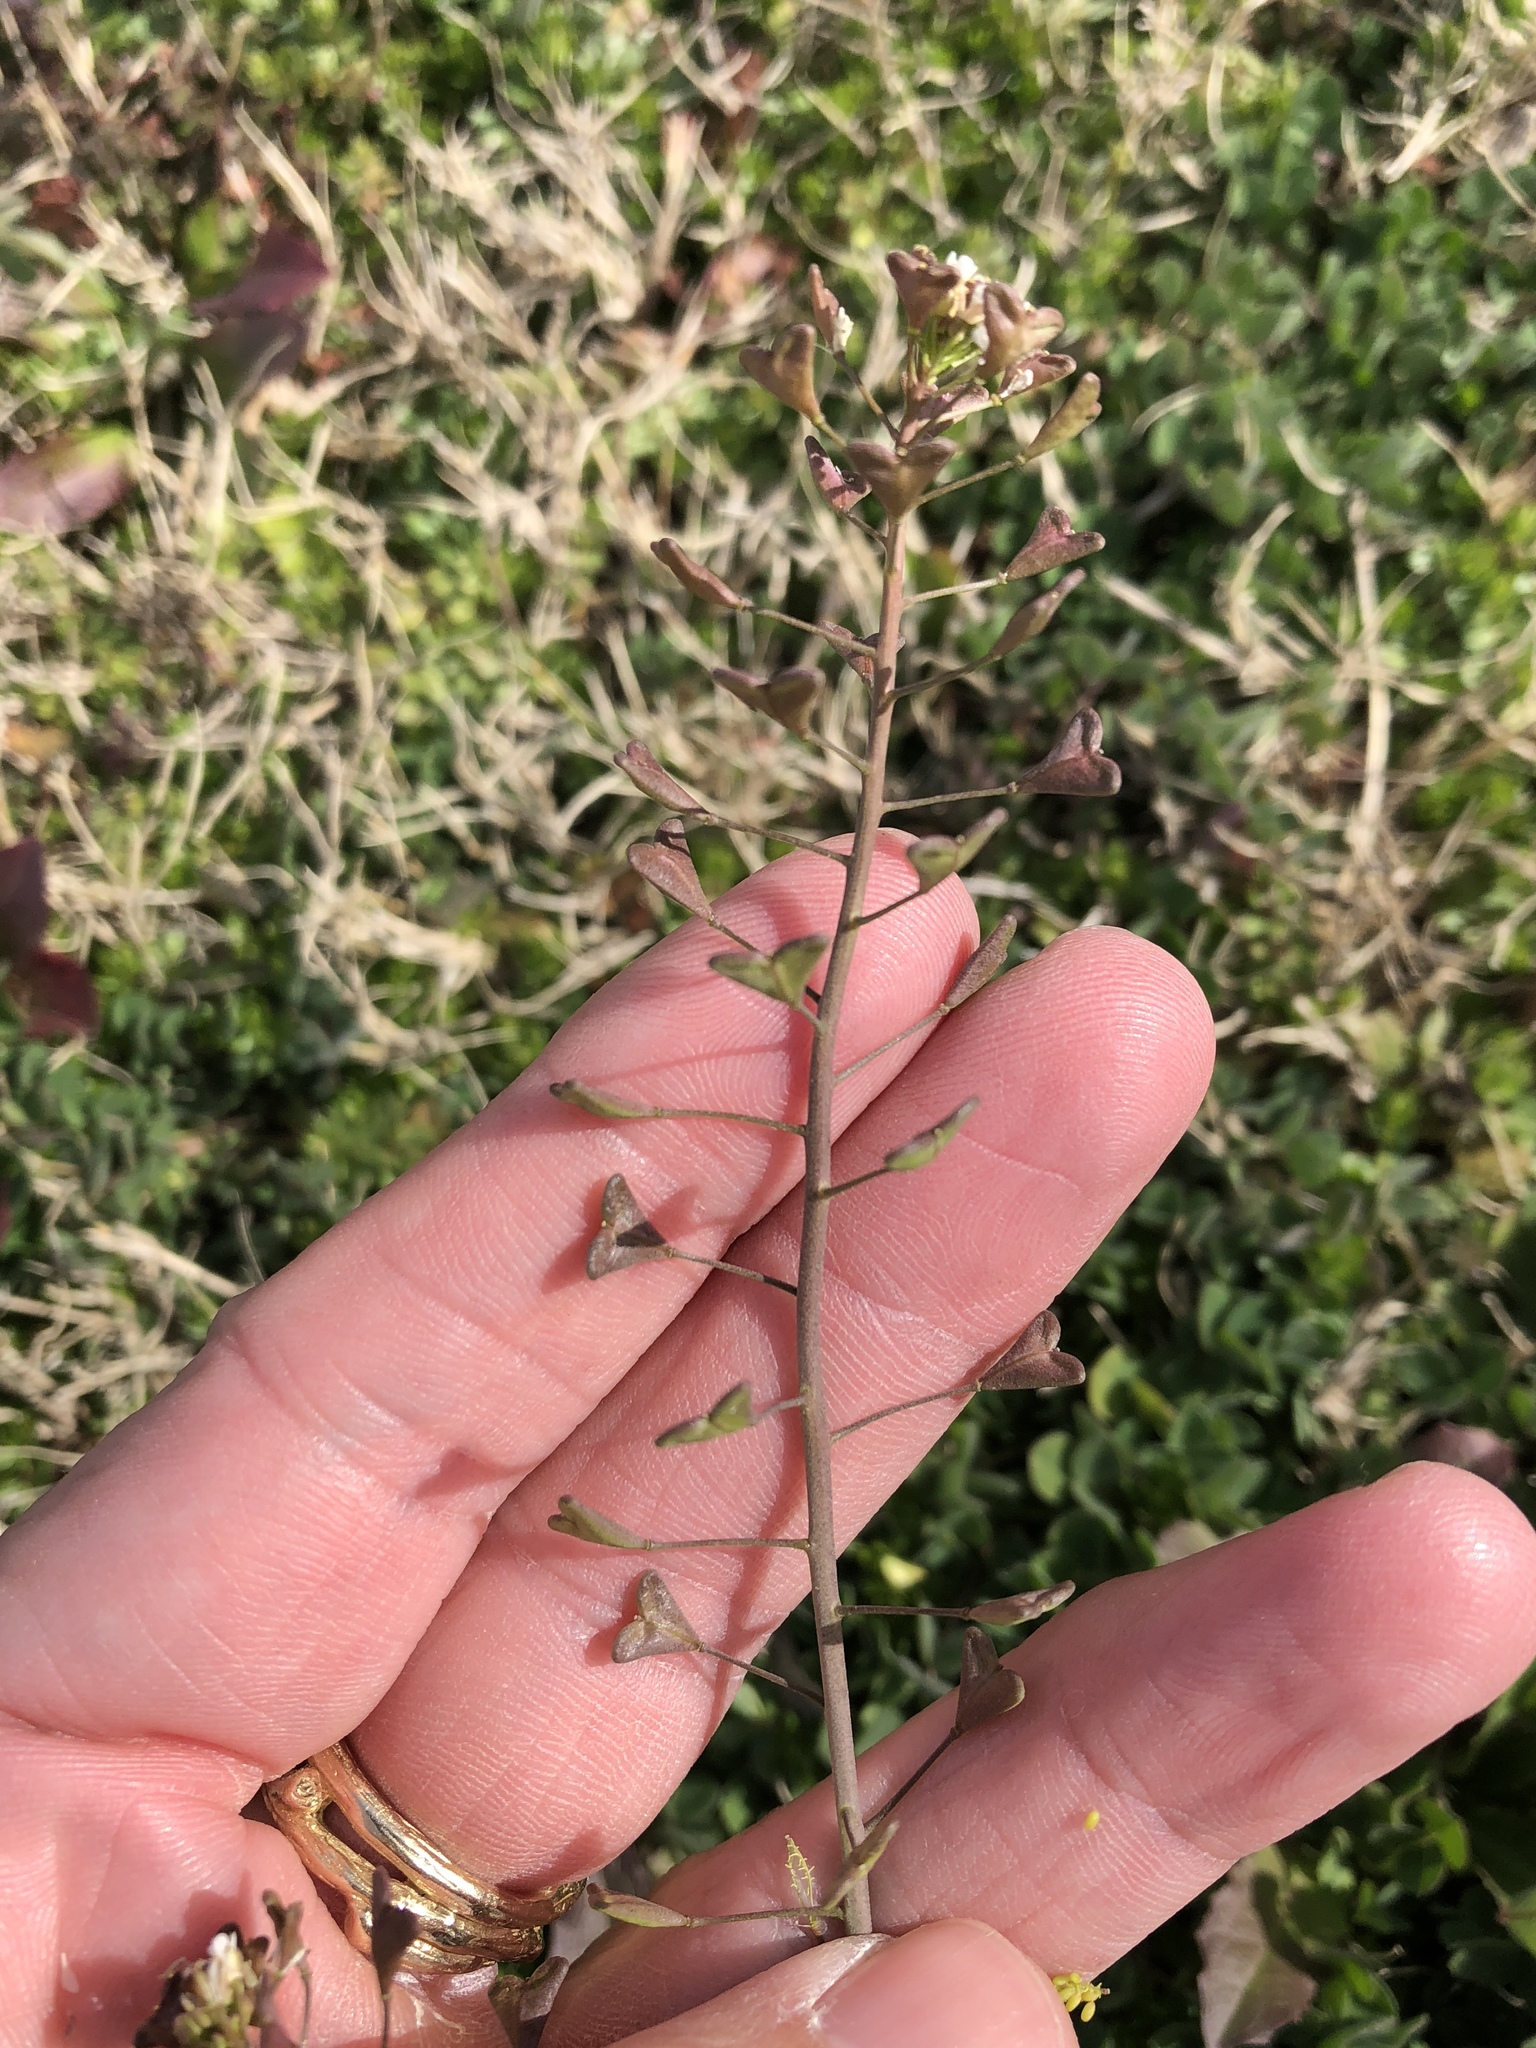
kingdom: Plantae
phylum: Tracheophyta
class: Magnoliopsida
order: Brassicales
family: Brassicaceae
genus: Capsella
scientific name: Capsella bursa-pastoris
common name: Shepherd's purse
